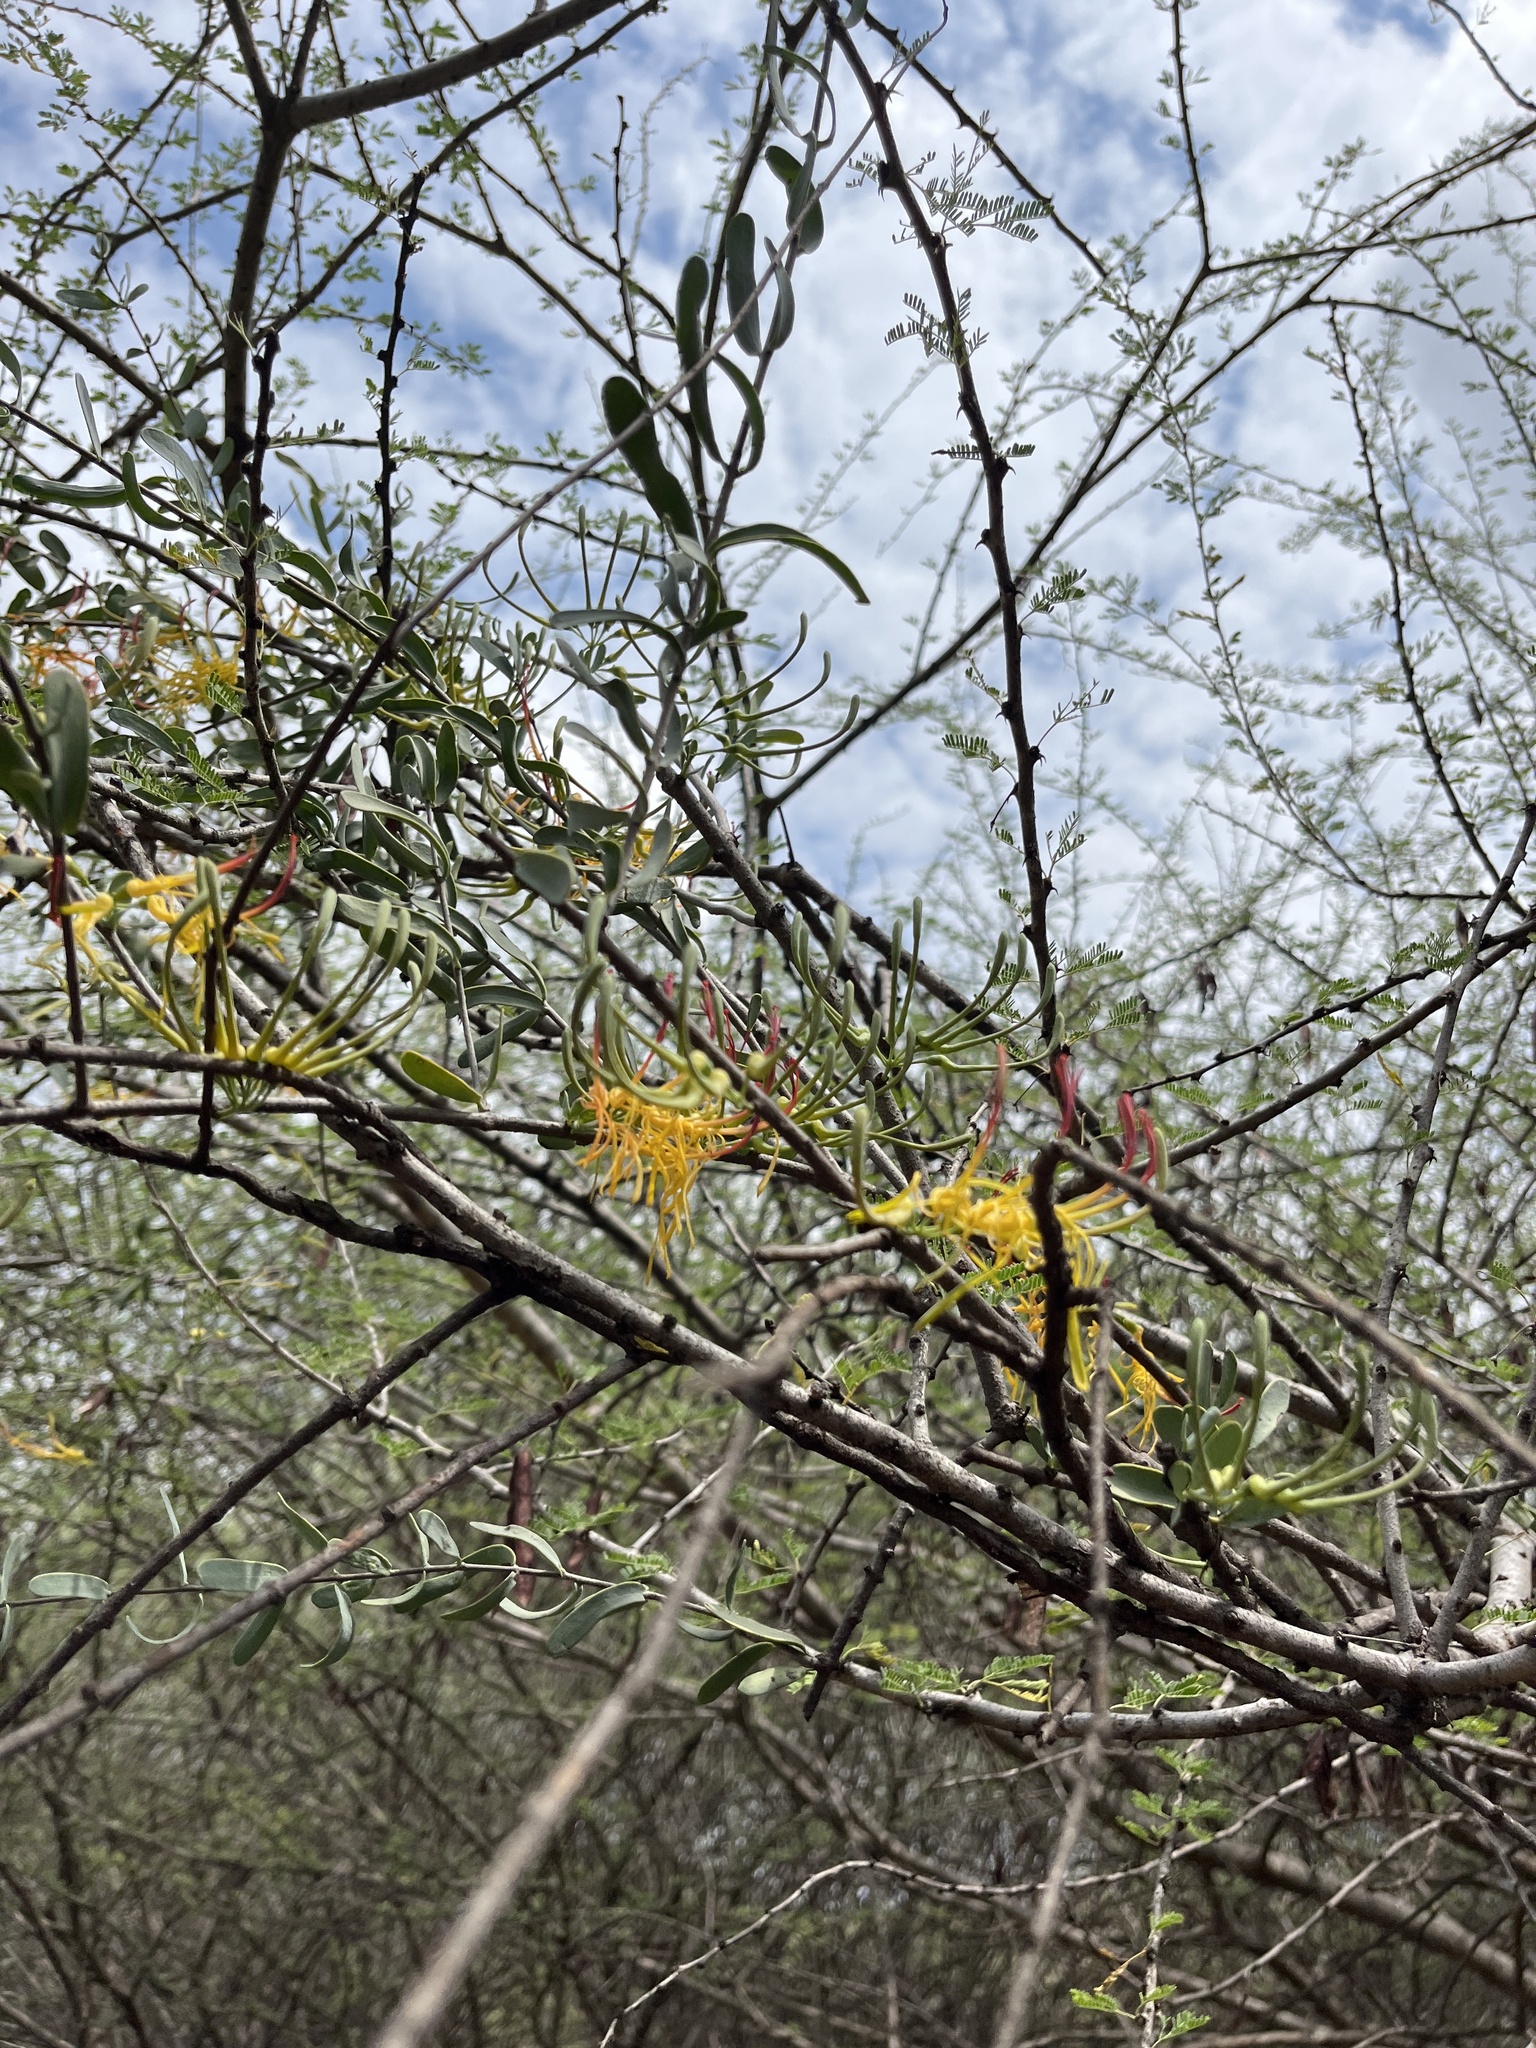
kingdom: Plantae
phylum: Tracheophyta
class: Magnoliopsida
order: Santalales
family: Loranthaceae
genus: Plicosepalus
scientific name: Plicosepalus curviflorus
